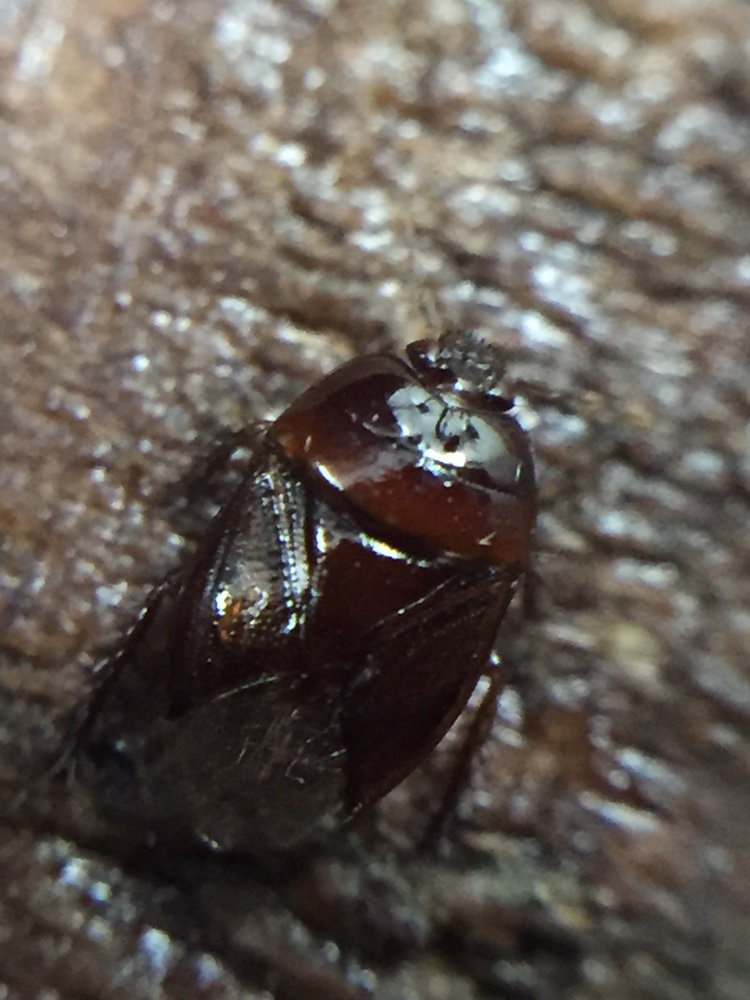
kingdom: Animalia
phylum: Arthropoda
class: Insecta
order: Hemiptera
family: Cydnidae
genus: Chilocoris
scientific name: Chilocoris neozealandicus
